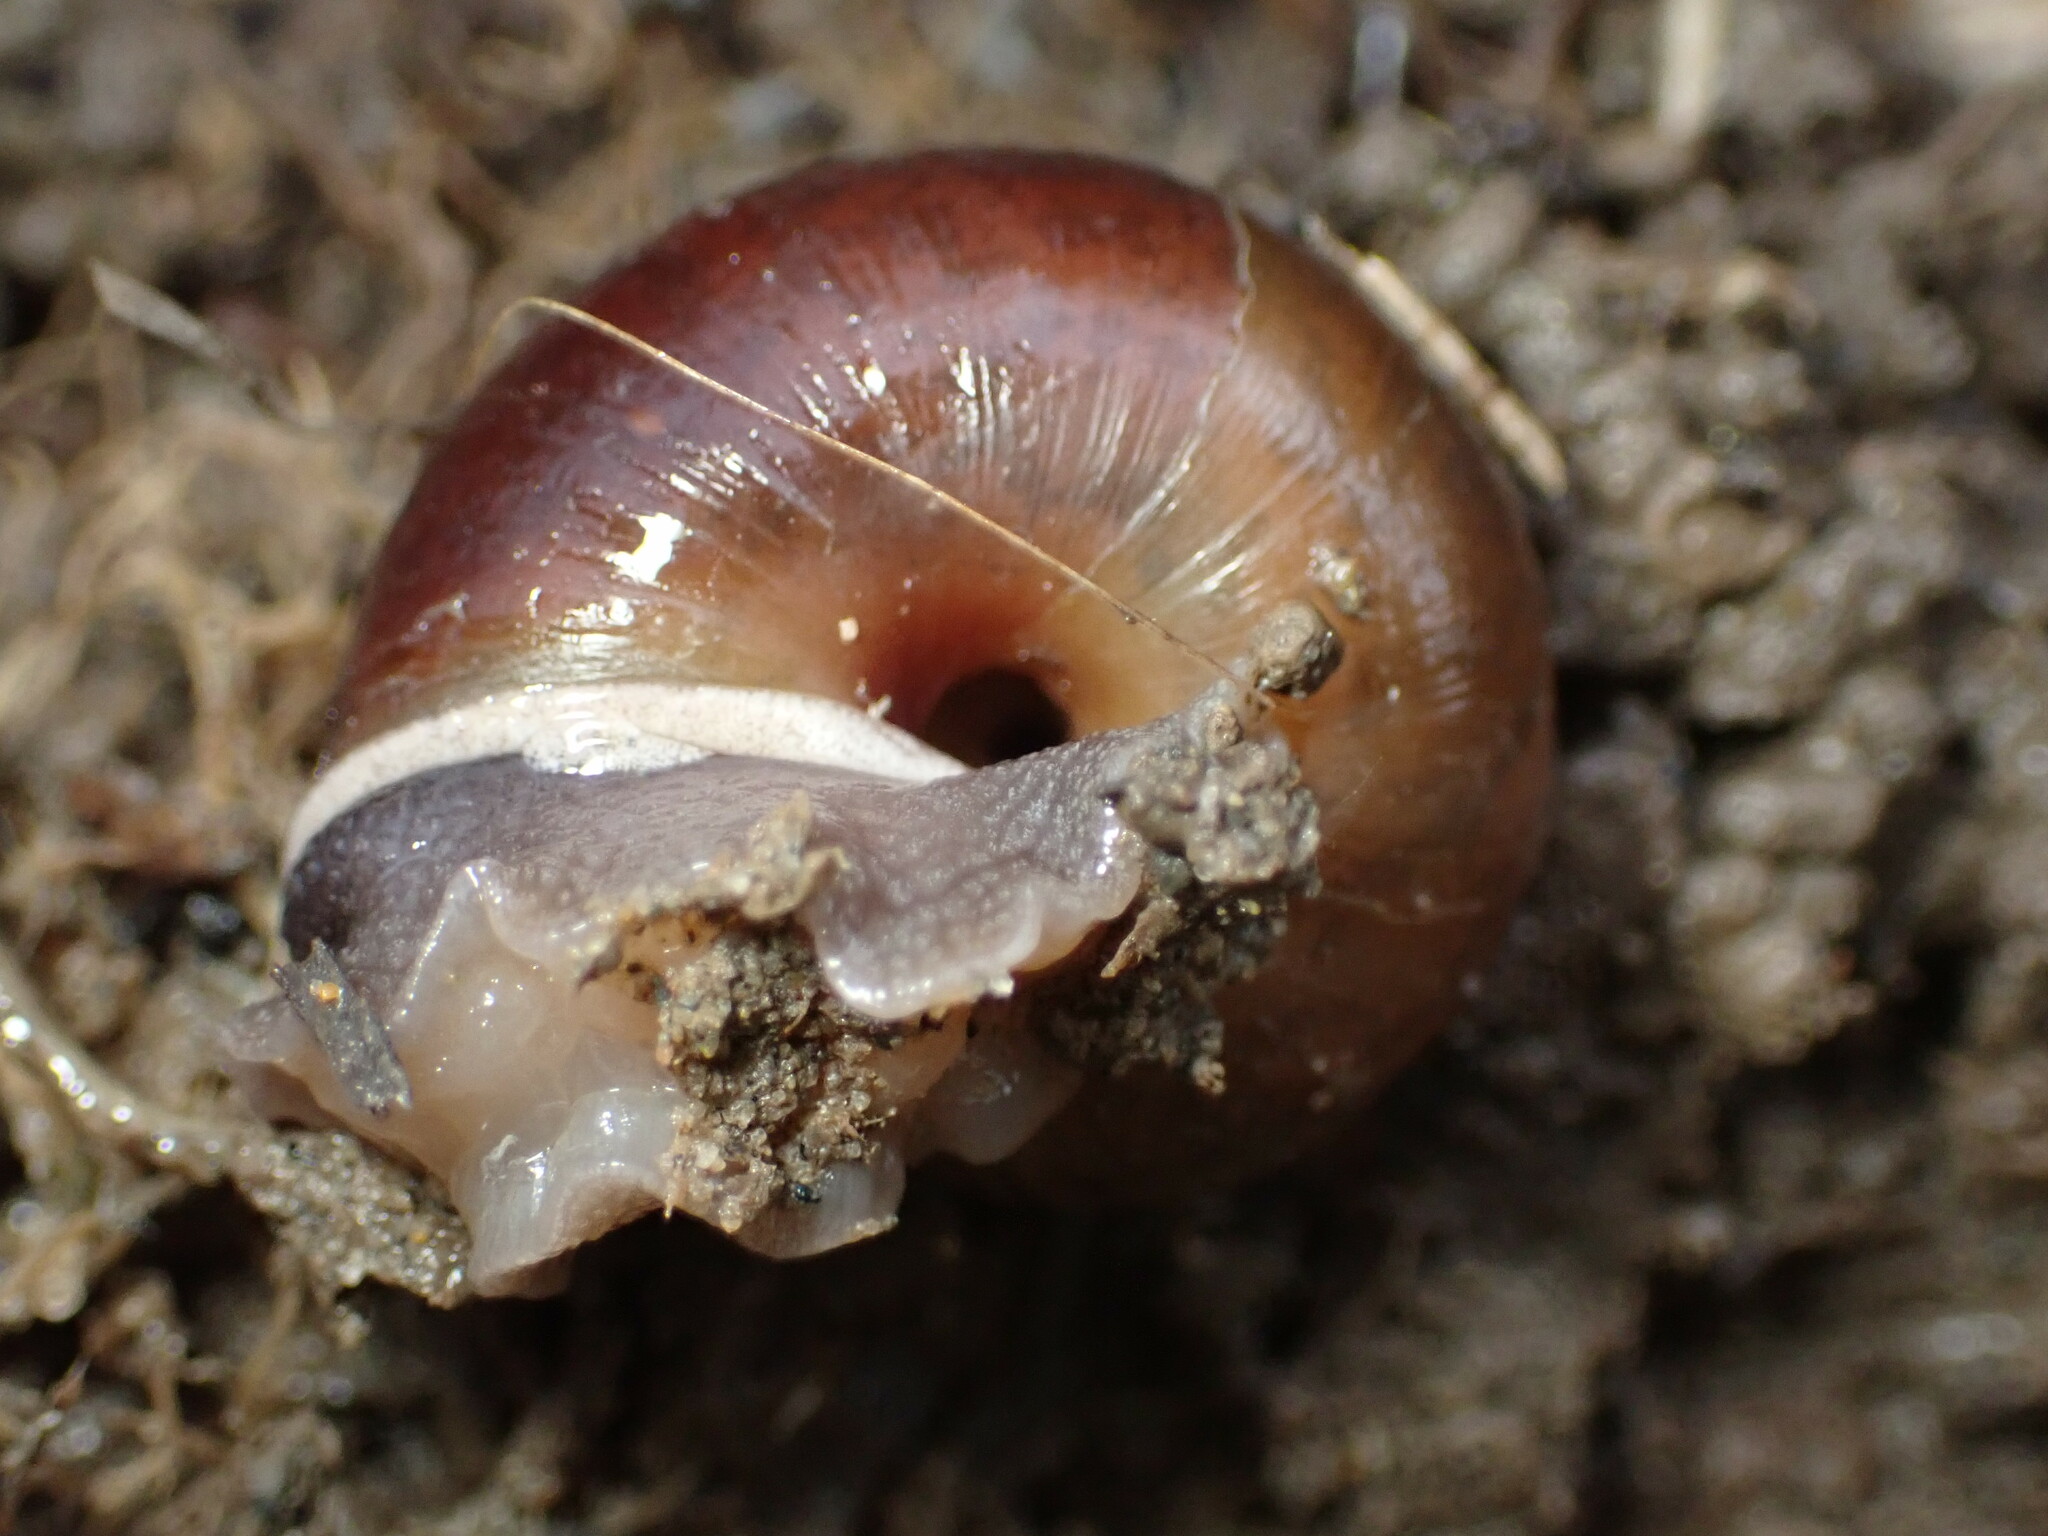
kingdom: Animalia
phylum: Mollusca
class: Gastropoda
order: Stylommatophora
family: Xanthonychidae
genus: Helminthoglypta
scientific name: Helminthoglypta umbilicata
